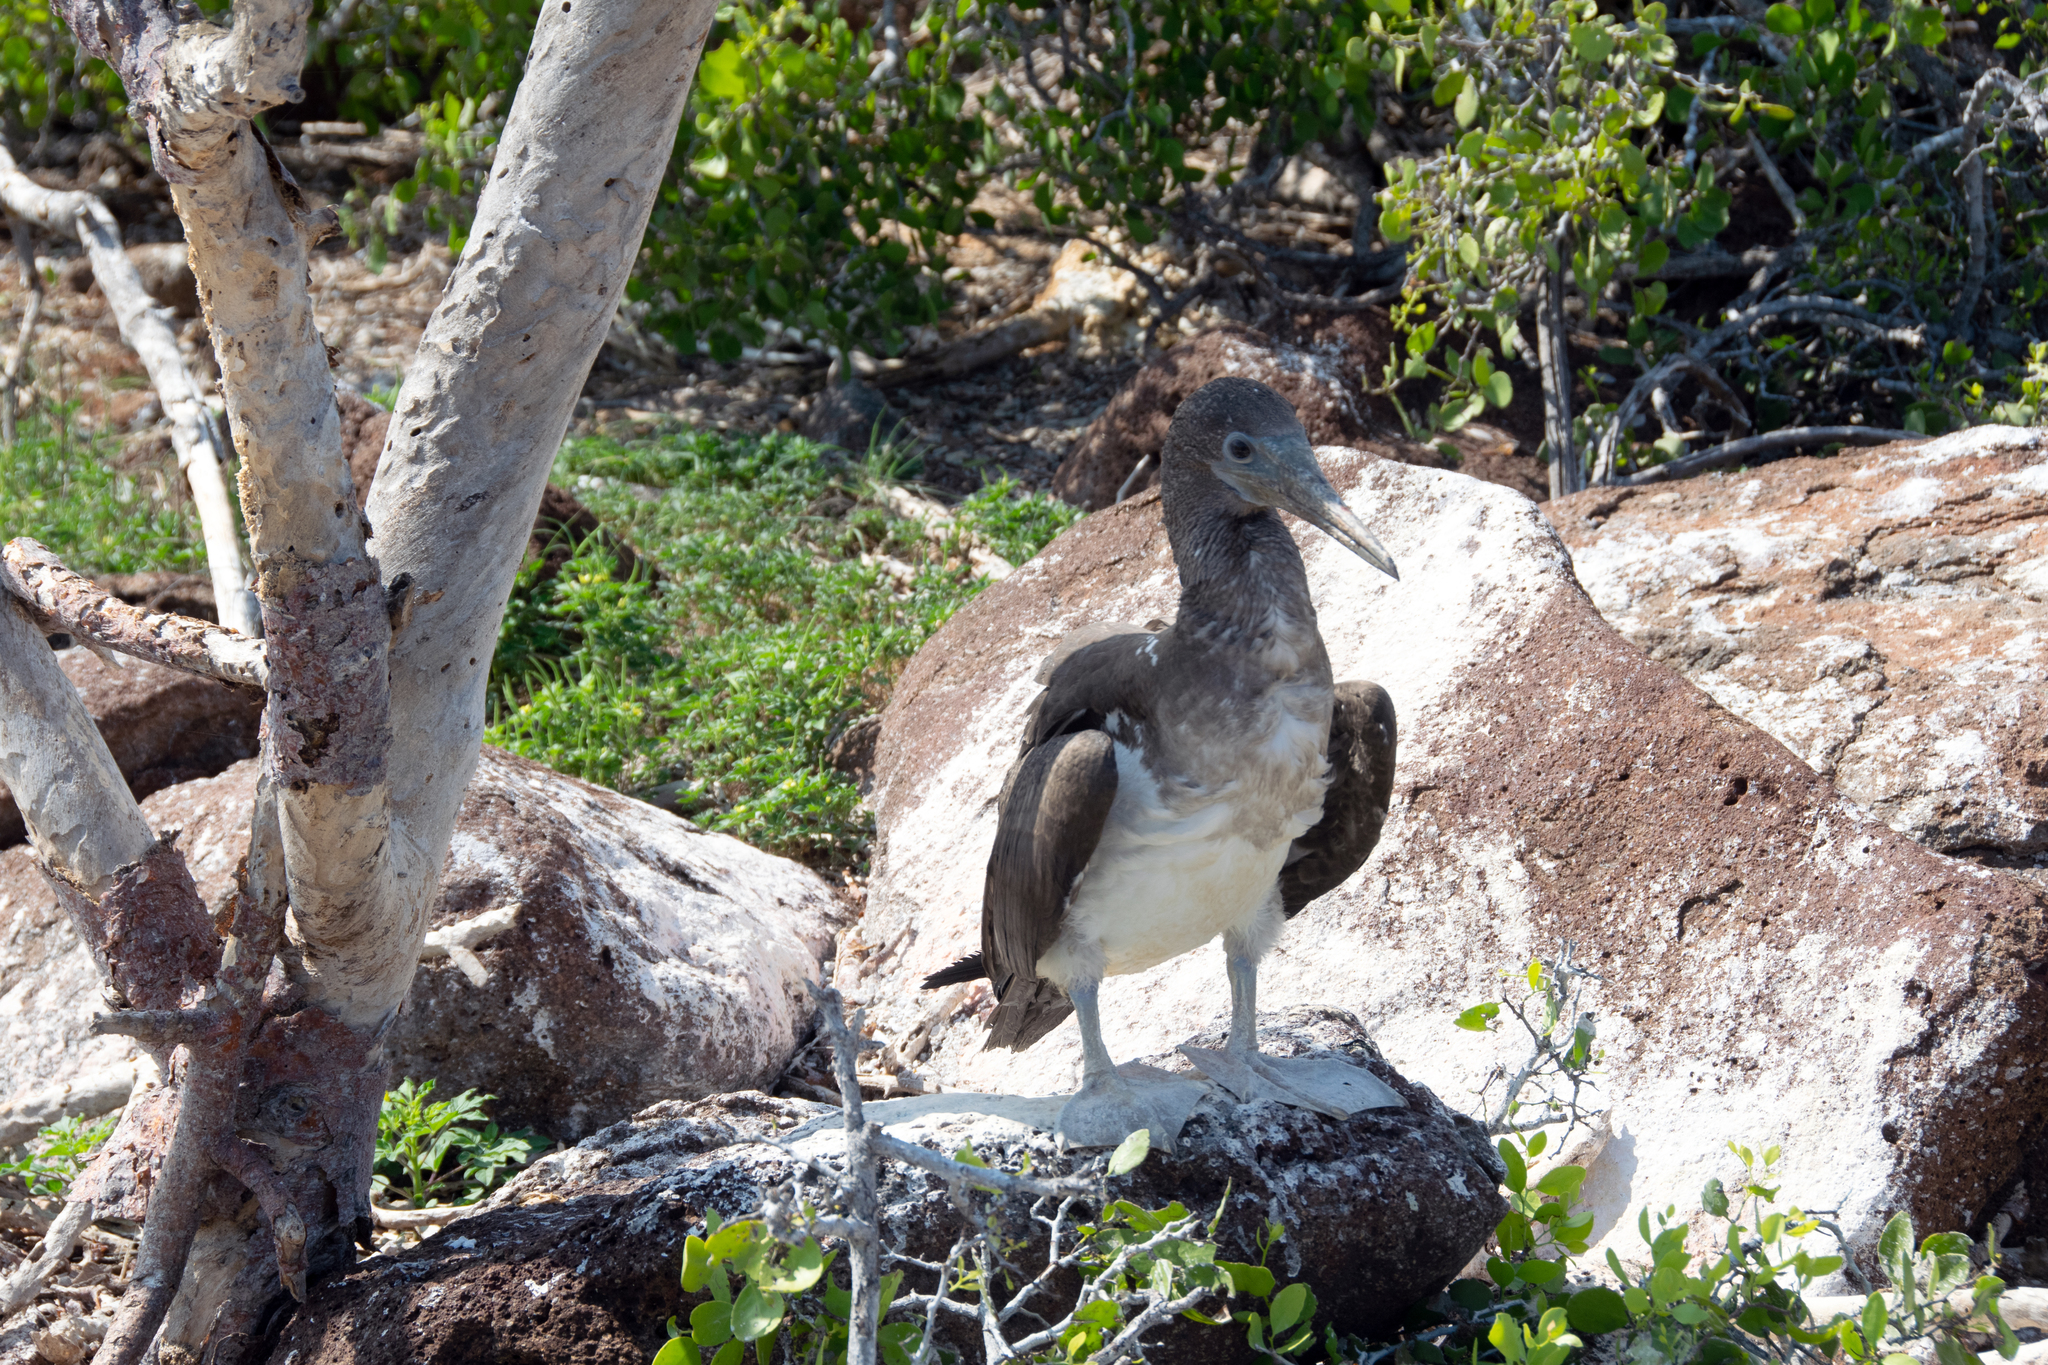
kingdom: Animalia
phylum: Chordata
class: Aves
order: Suliformes
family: Sulidae
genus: Sula
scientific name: Sula nebouxii
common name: Blue-footed booby
